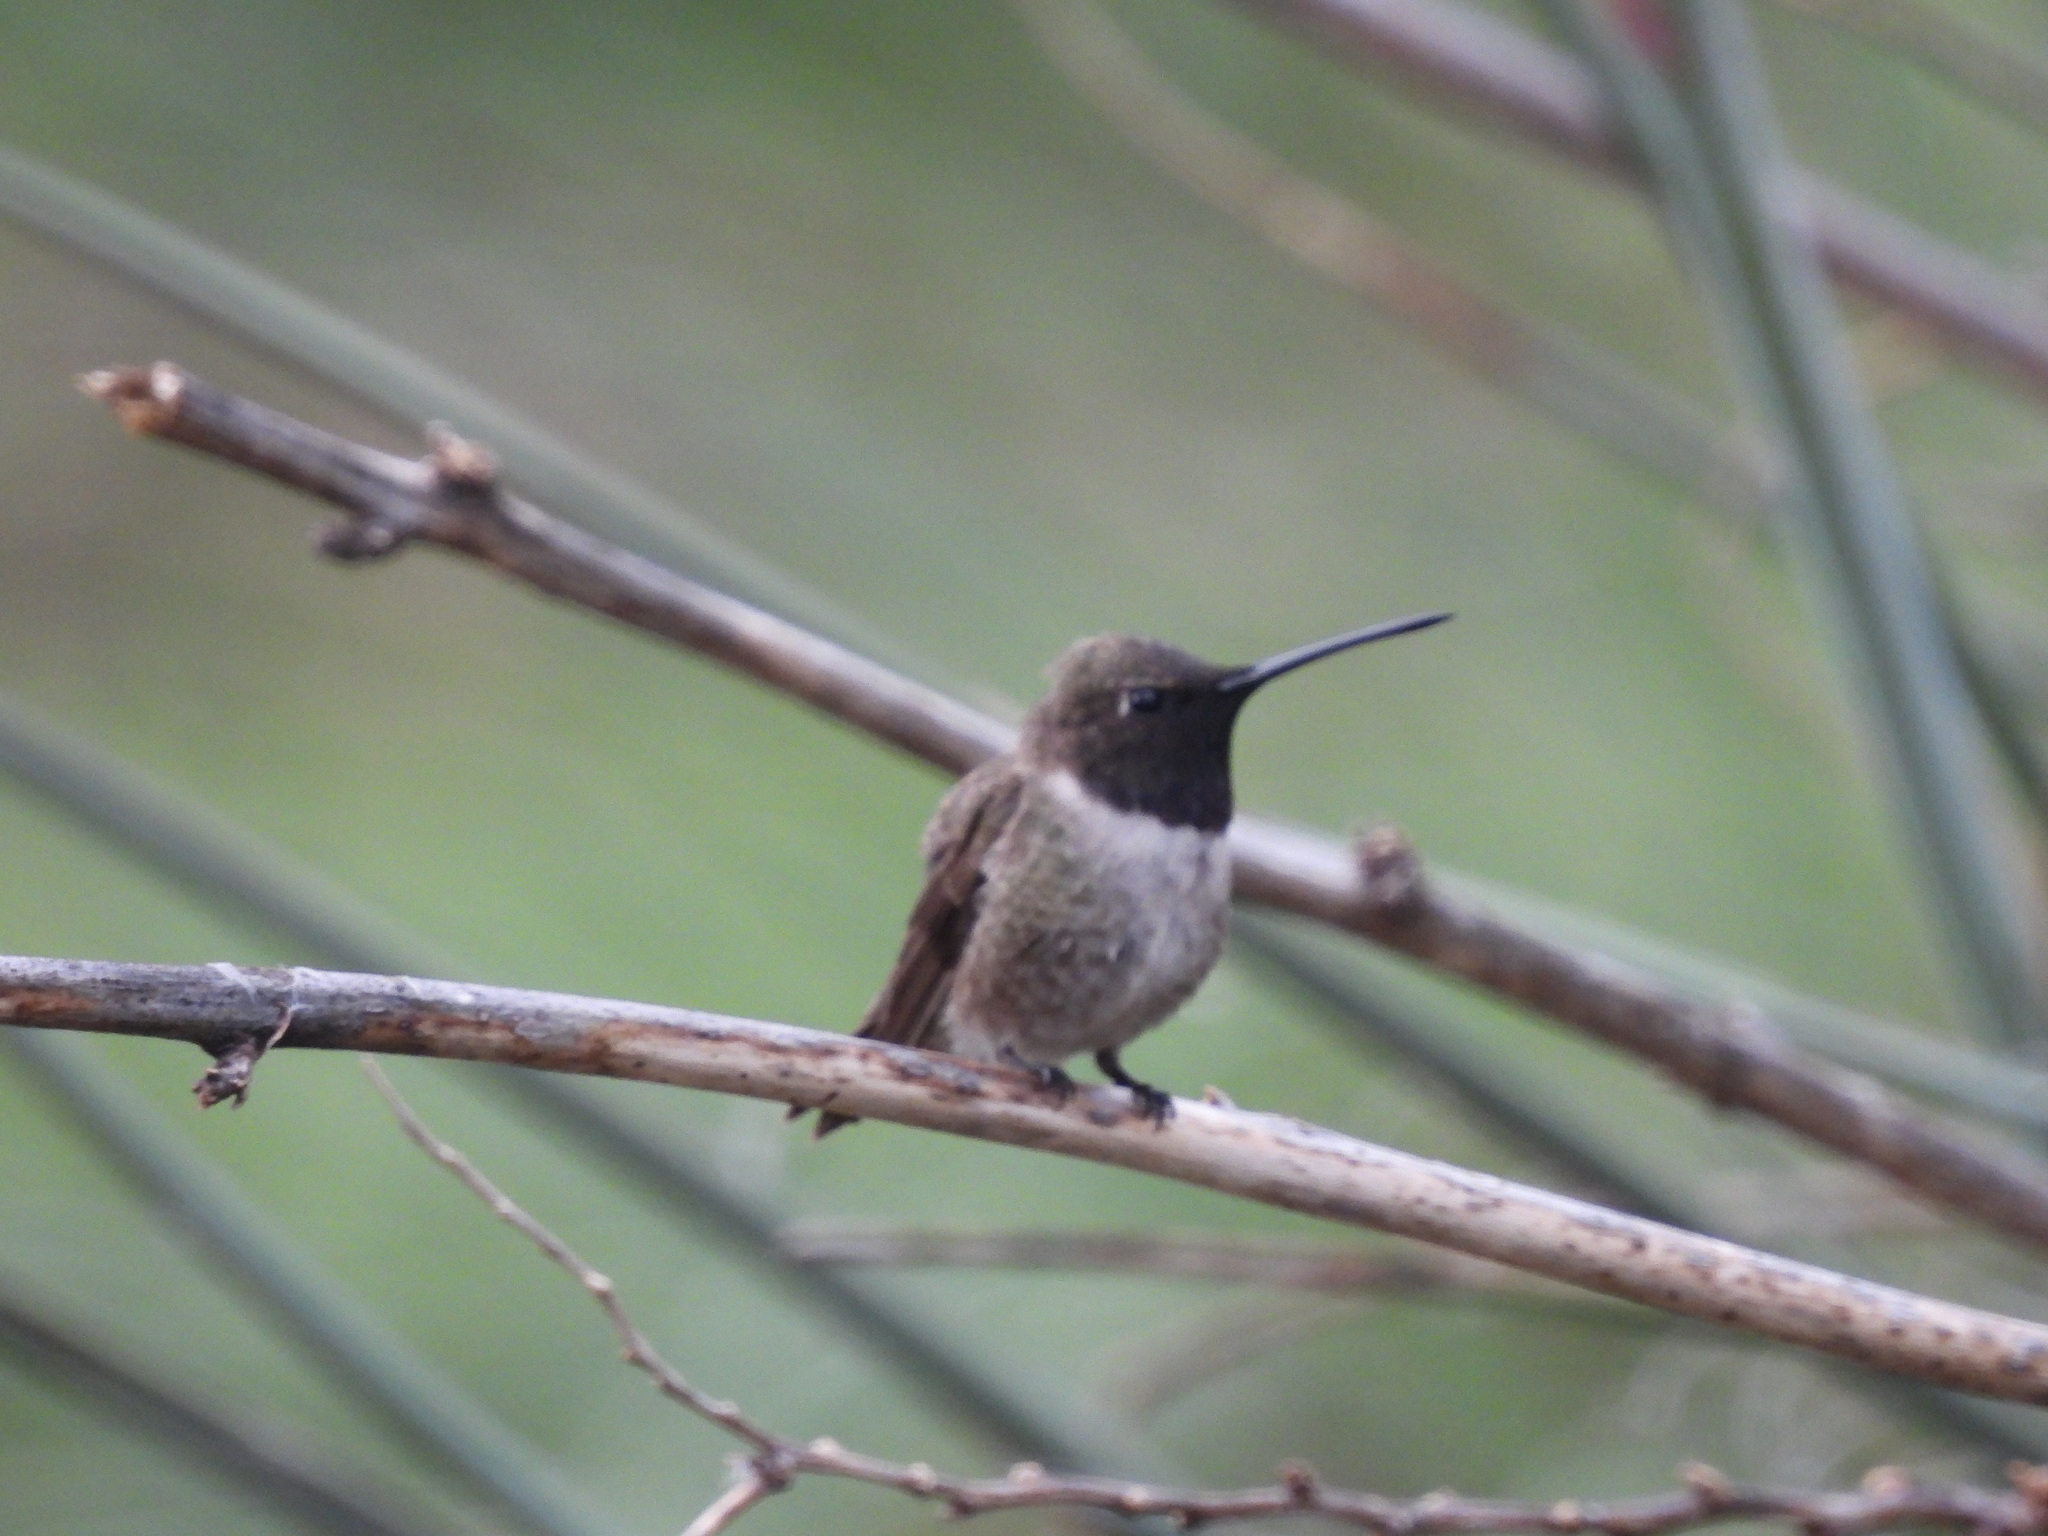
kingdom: Animalia
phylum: Chordata
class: Aves
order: Apodiformes
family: Trochilidae
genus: Archilochus
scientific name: Archilochus alexandri
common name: Black-chinned hummingbird
